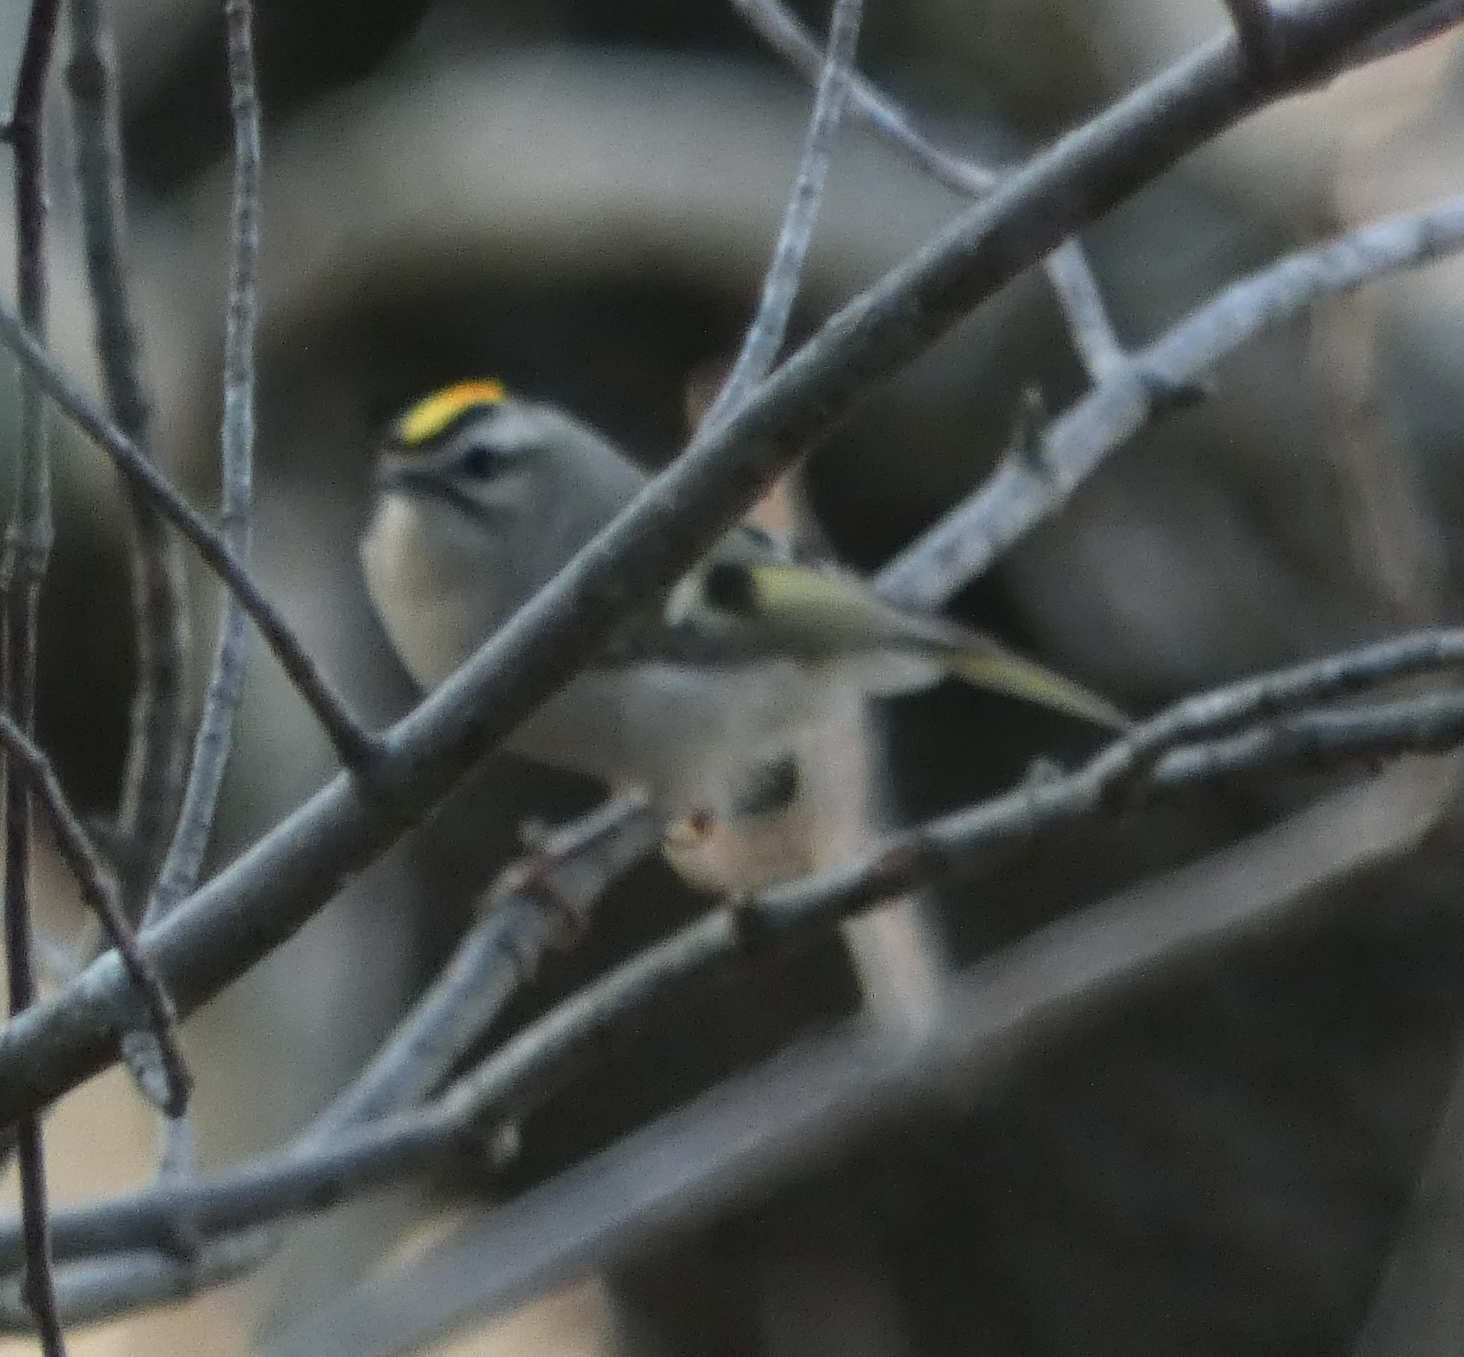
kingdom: Animalia
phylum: Chordata
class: Aves
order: Passeriformes
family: Regulidae
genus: Regulus
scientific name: Regulus satrapa
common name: Golden-crowned kinglet
